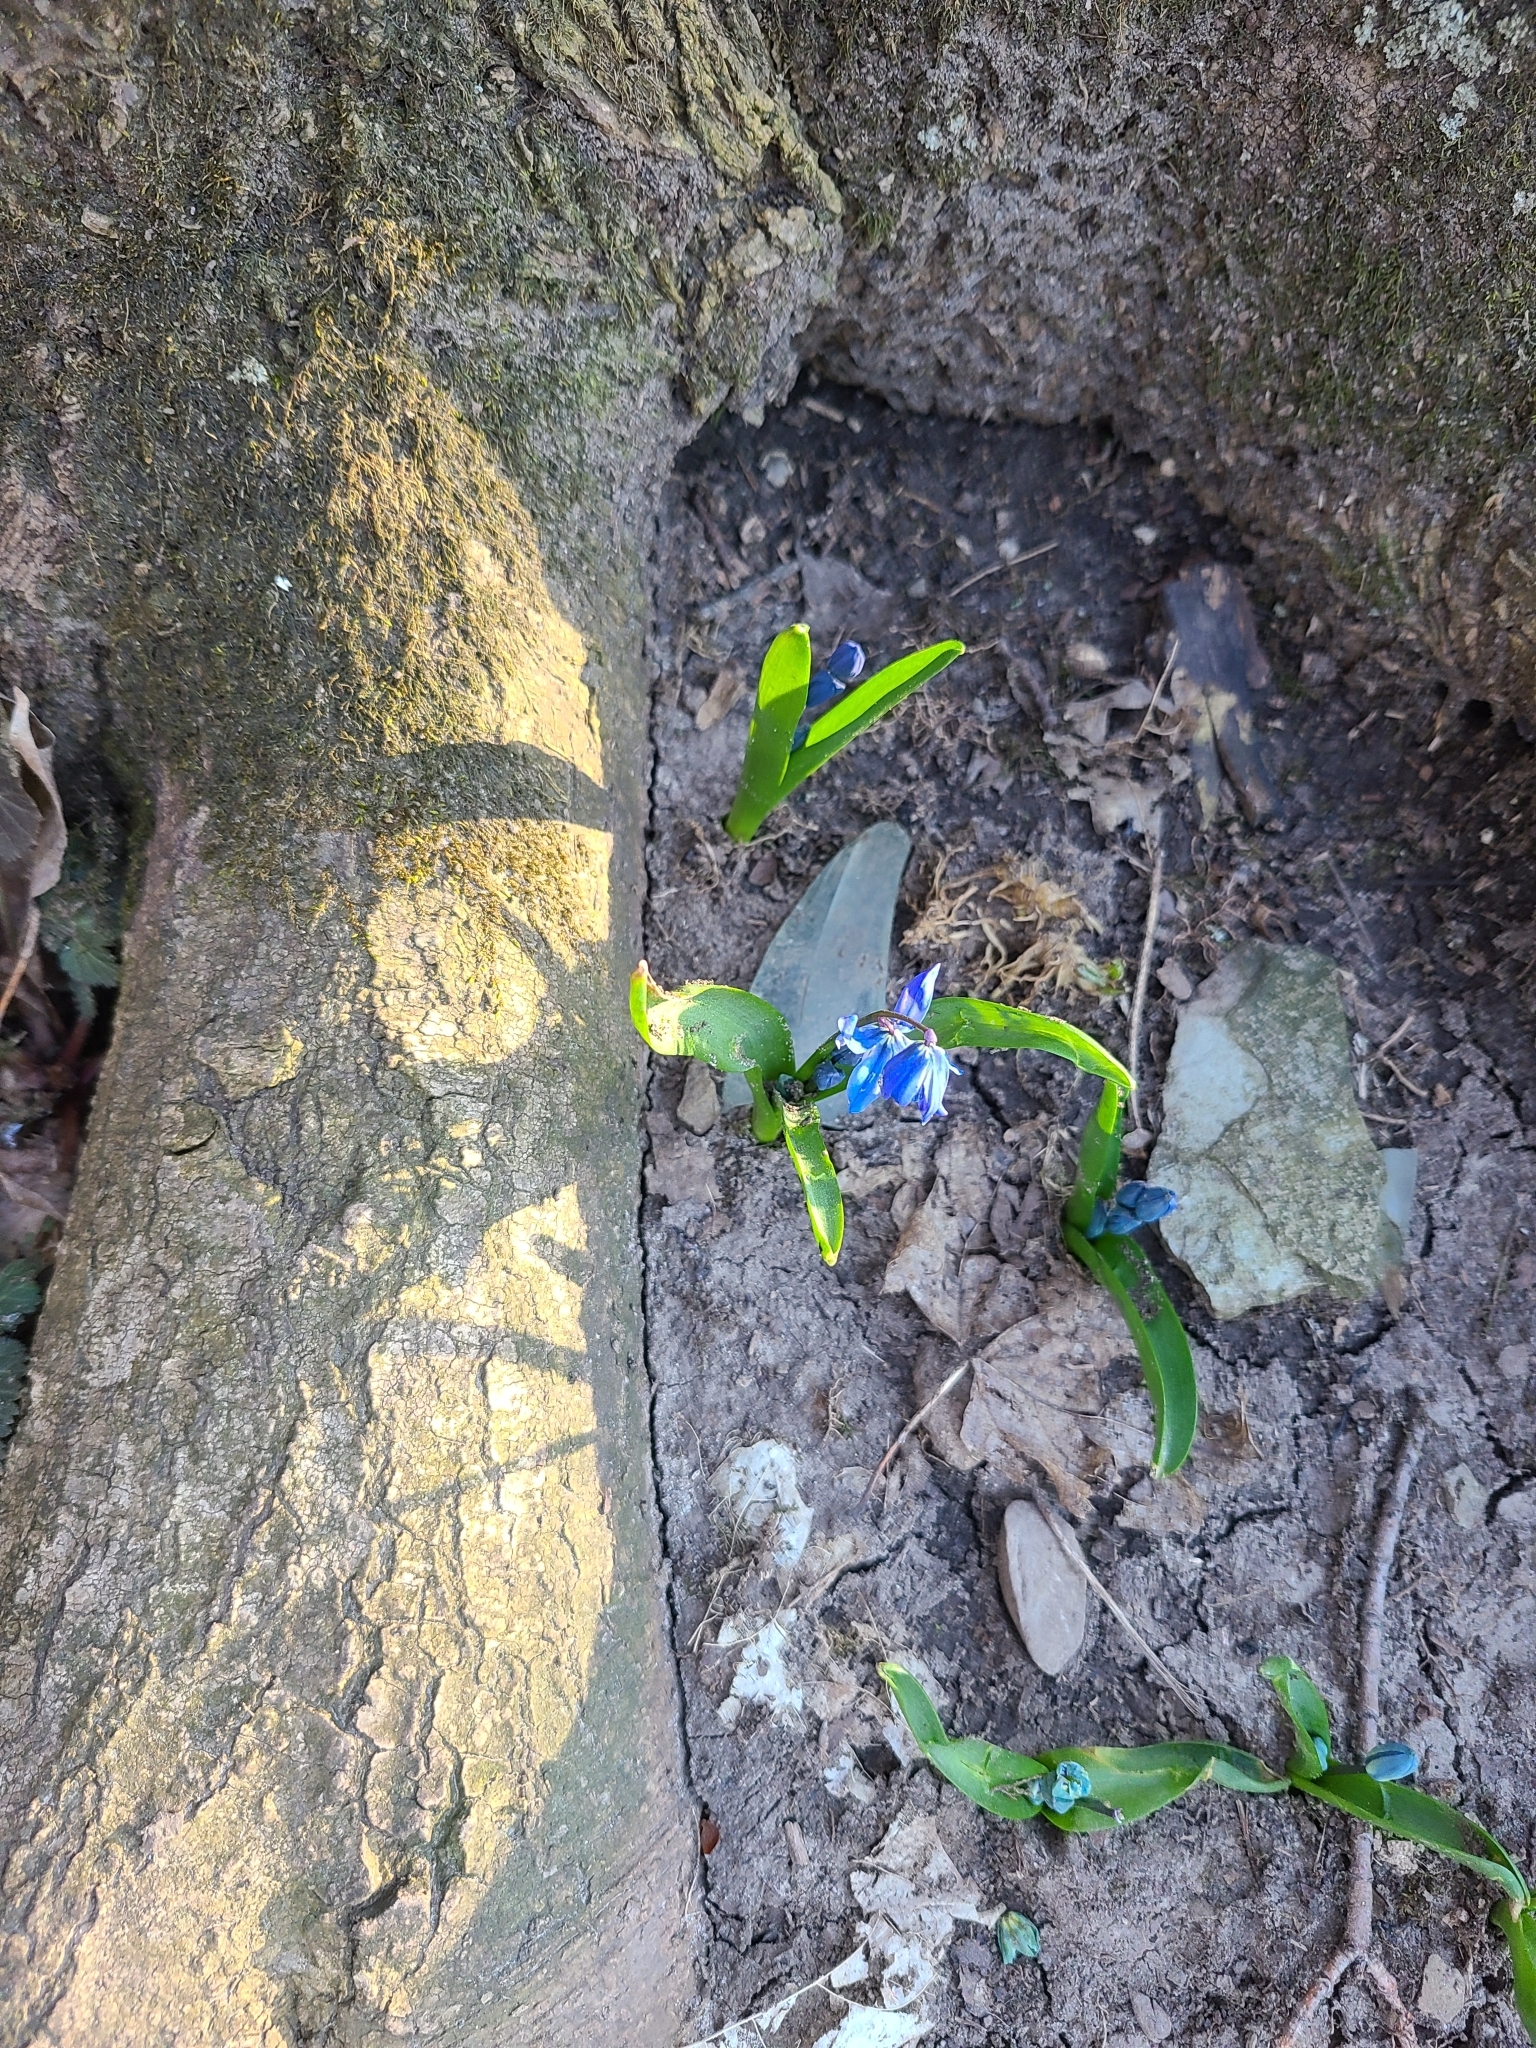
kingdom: Plantae
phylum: Tracheophyta
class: Liliopsida
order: Asparagales
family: Asparagaceae
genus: Scilla
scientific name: Scilla siberica
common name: Siberian squill
